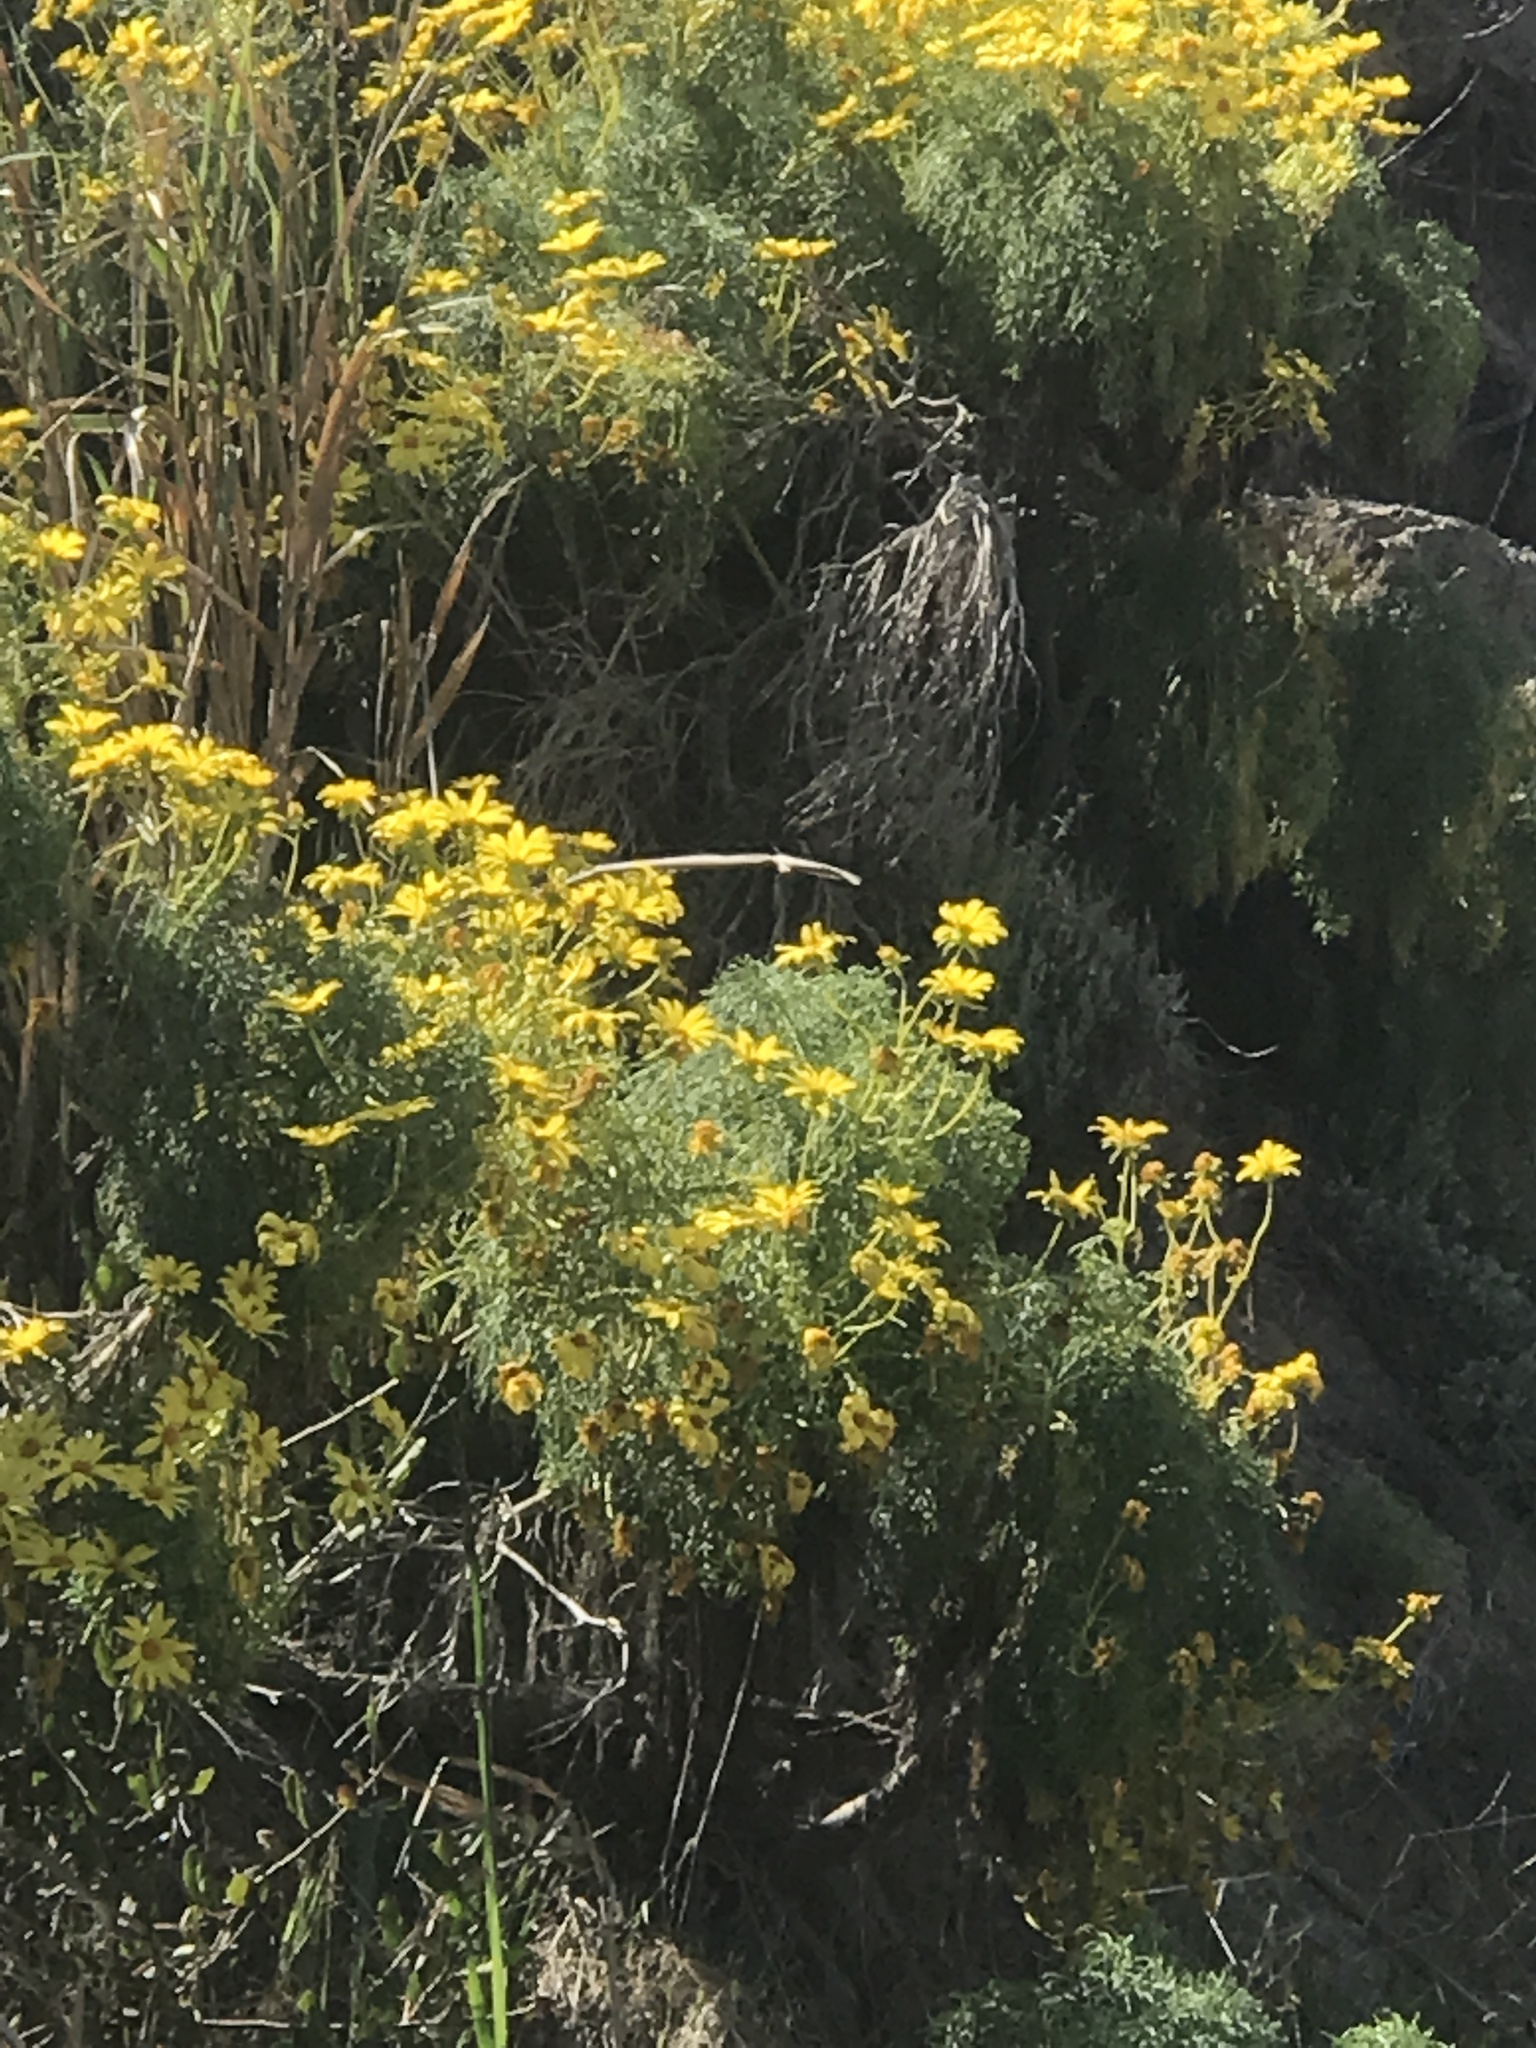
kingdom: Plantae
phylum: Tracheophyta
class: Magnoliopsida
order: Asterales
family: Asteraceae
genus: Coreopsis
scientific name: Coreopsis gigantea
